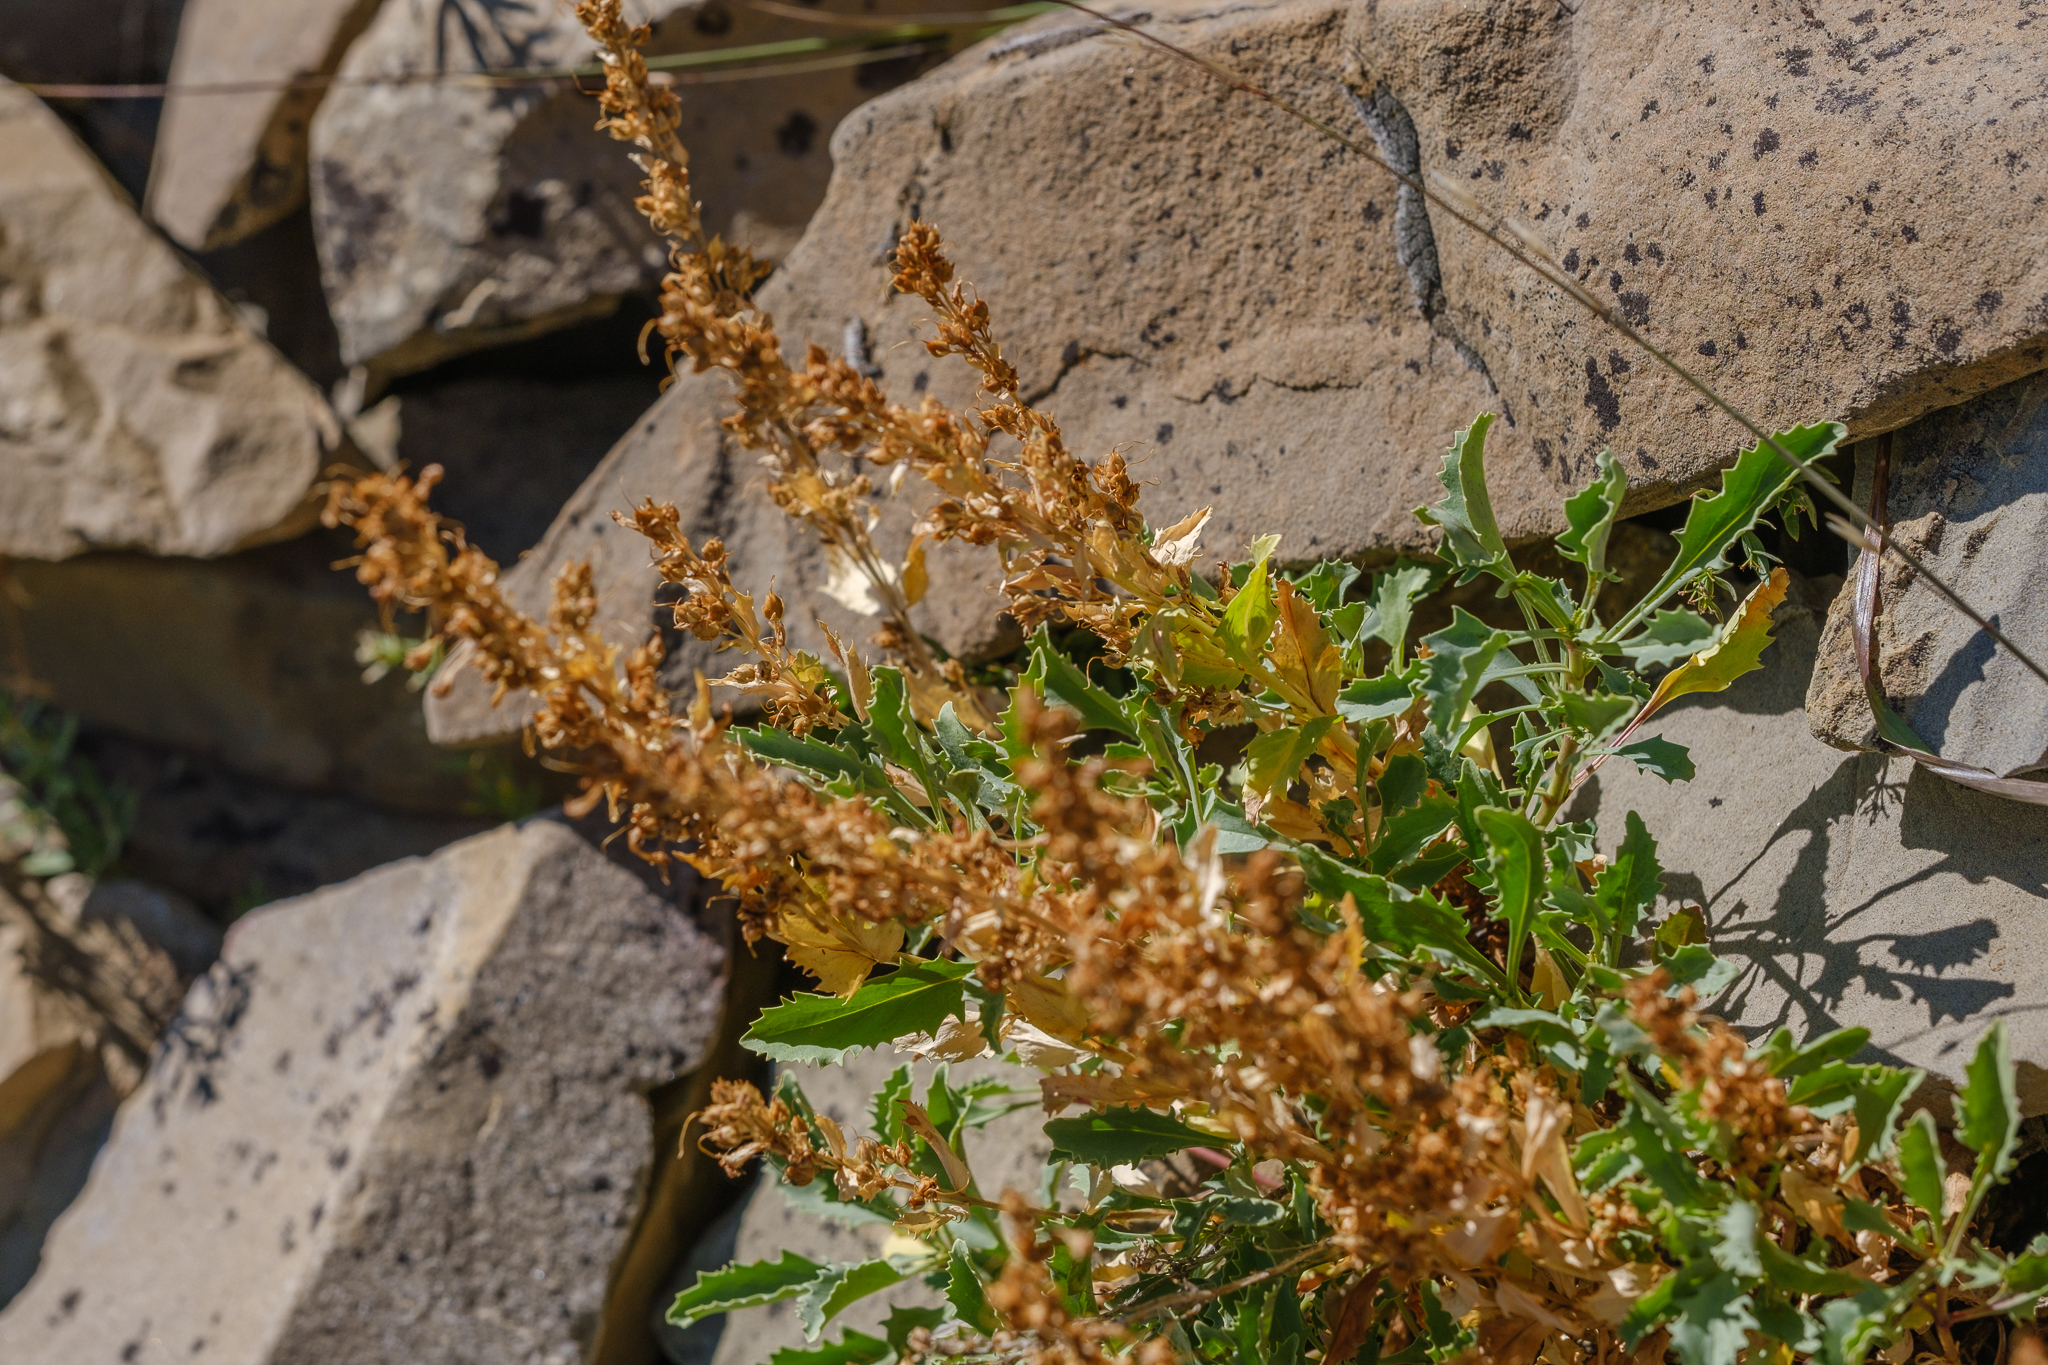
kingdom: Plantae
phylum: Tracheophyta
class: Magnoliopsida
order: Lamiales
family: Plantaginaceae
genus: Penstemon
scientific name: Penstemon deustus
